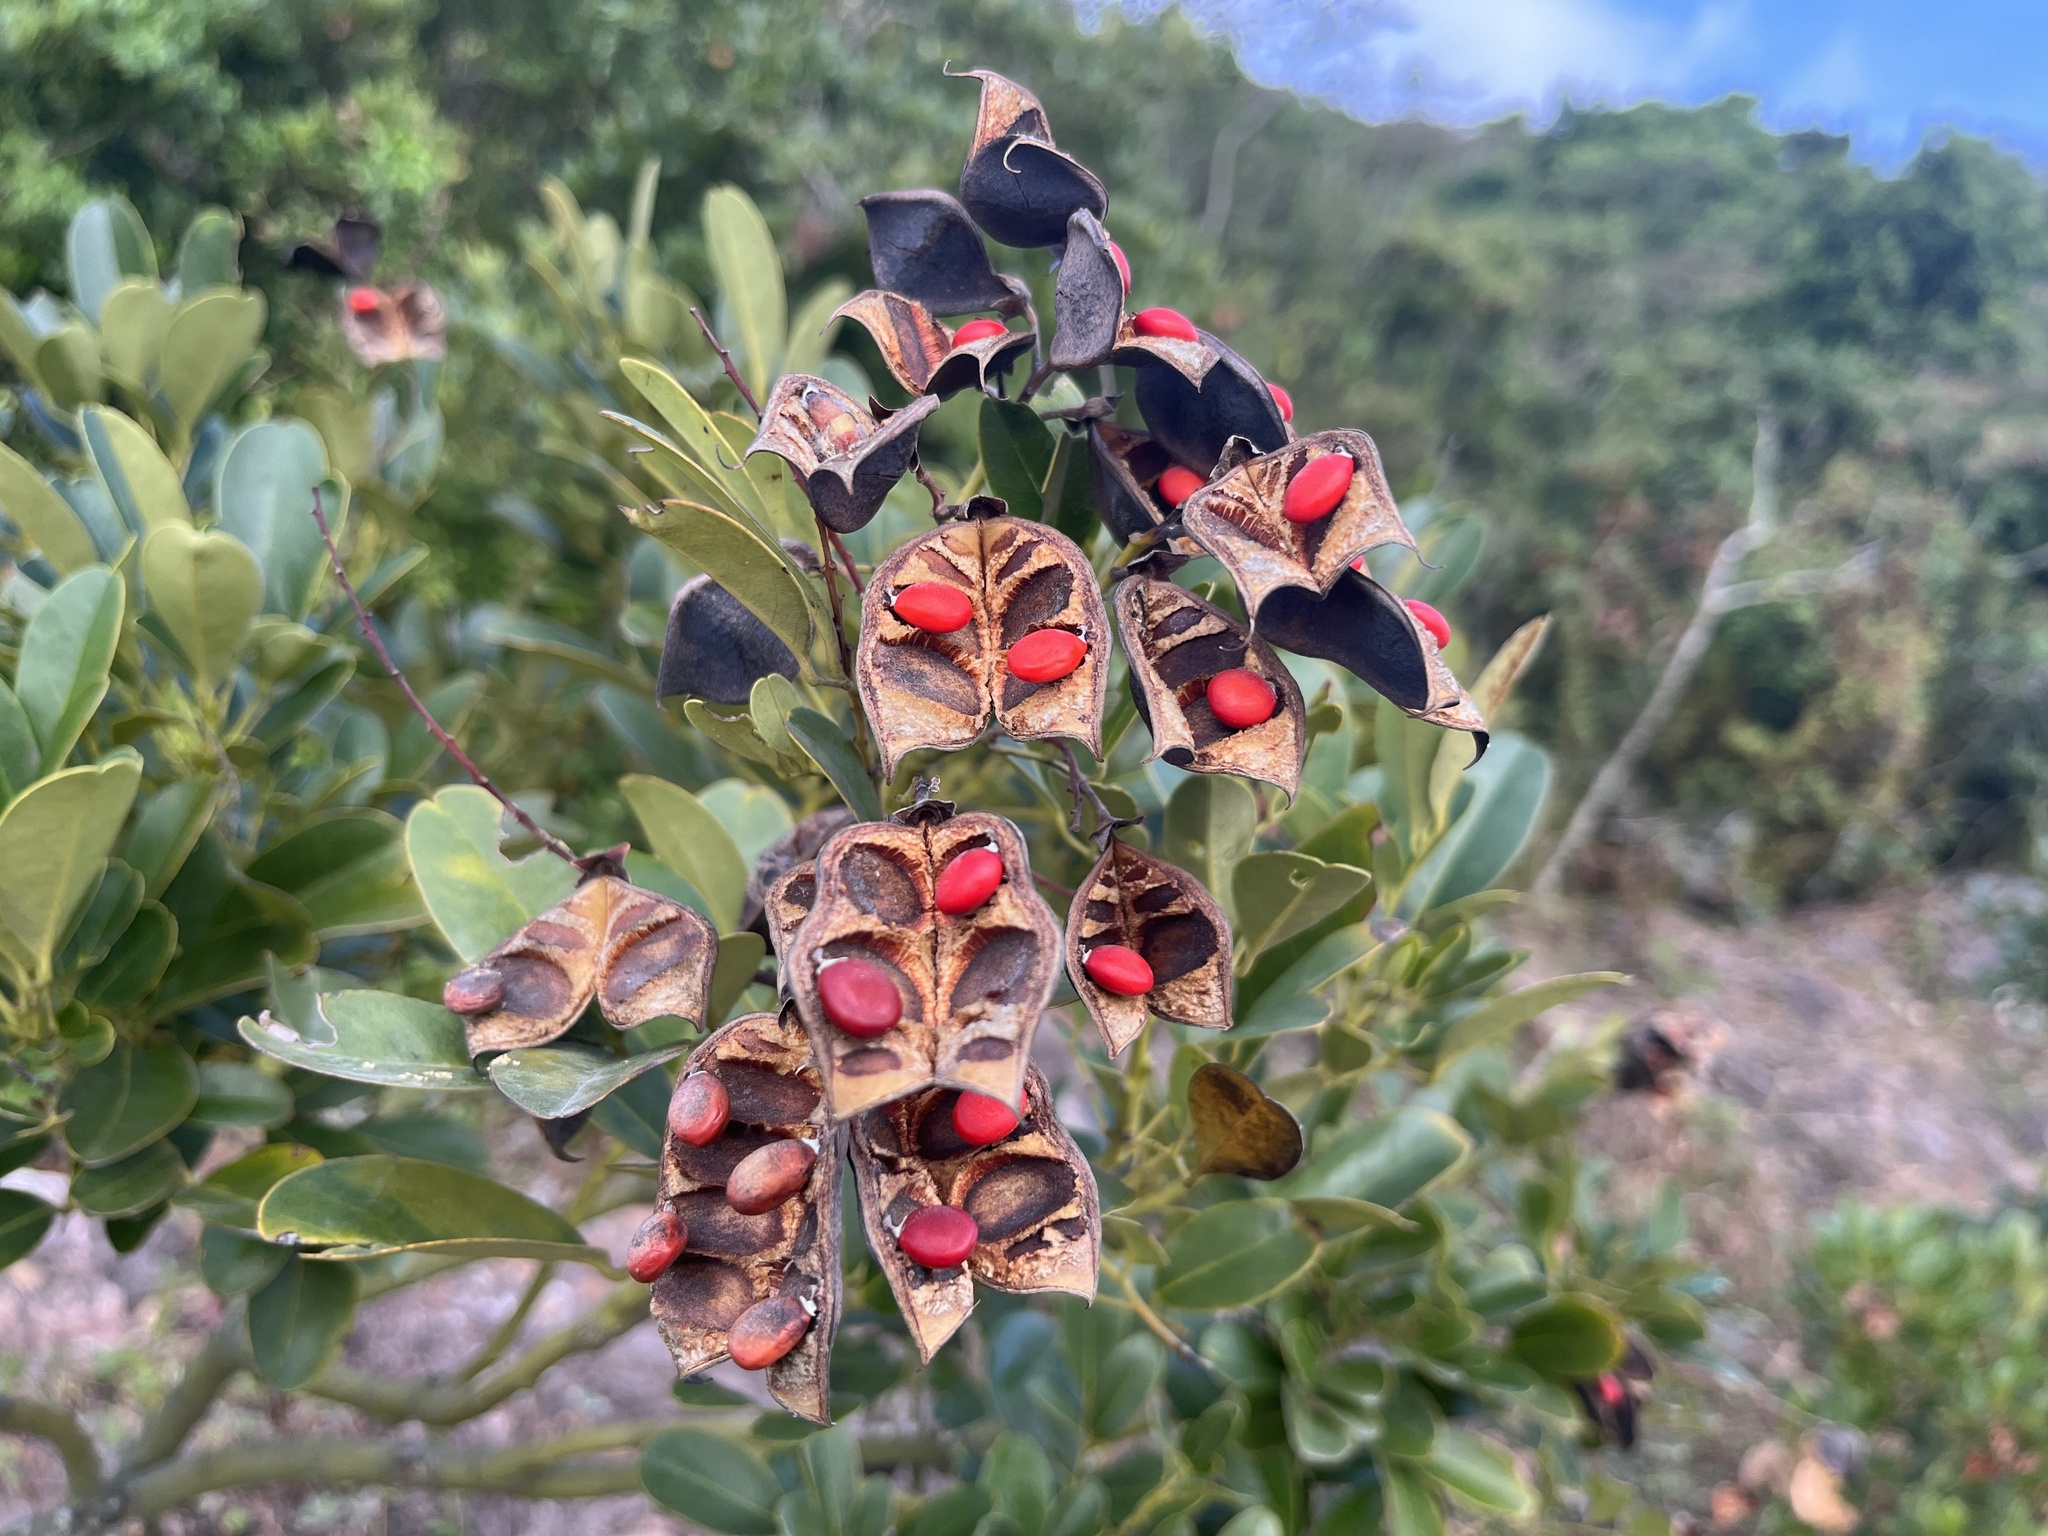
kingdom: Plantae
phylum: Tracheophyta
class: Magnoliopsida
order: Fabales
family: Fabaceae
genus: Ormosia
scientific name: Ormosia emarginata
